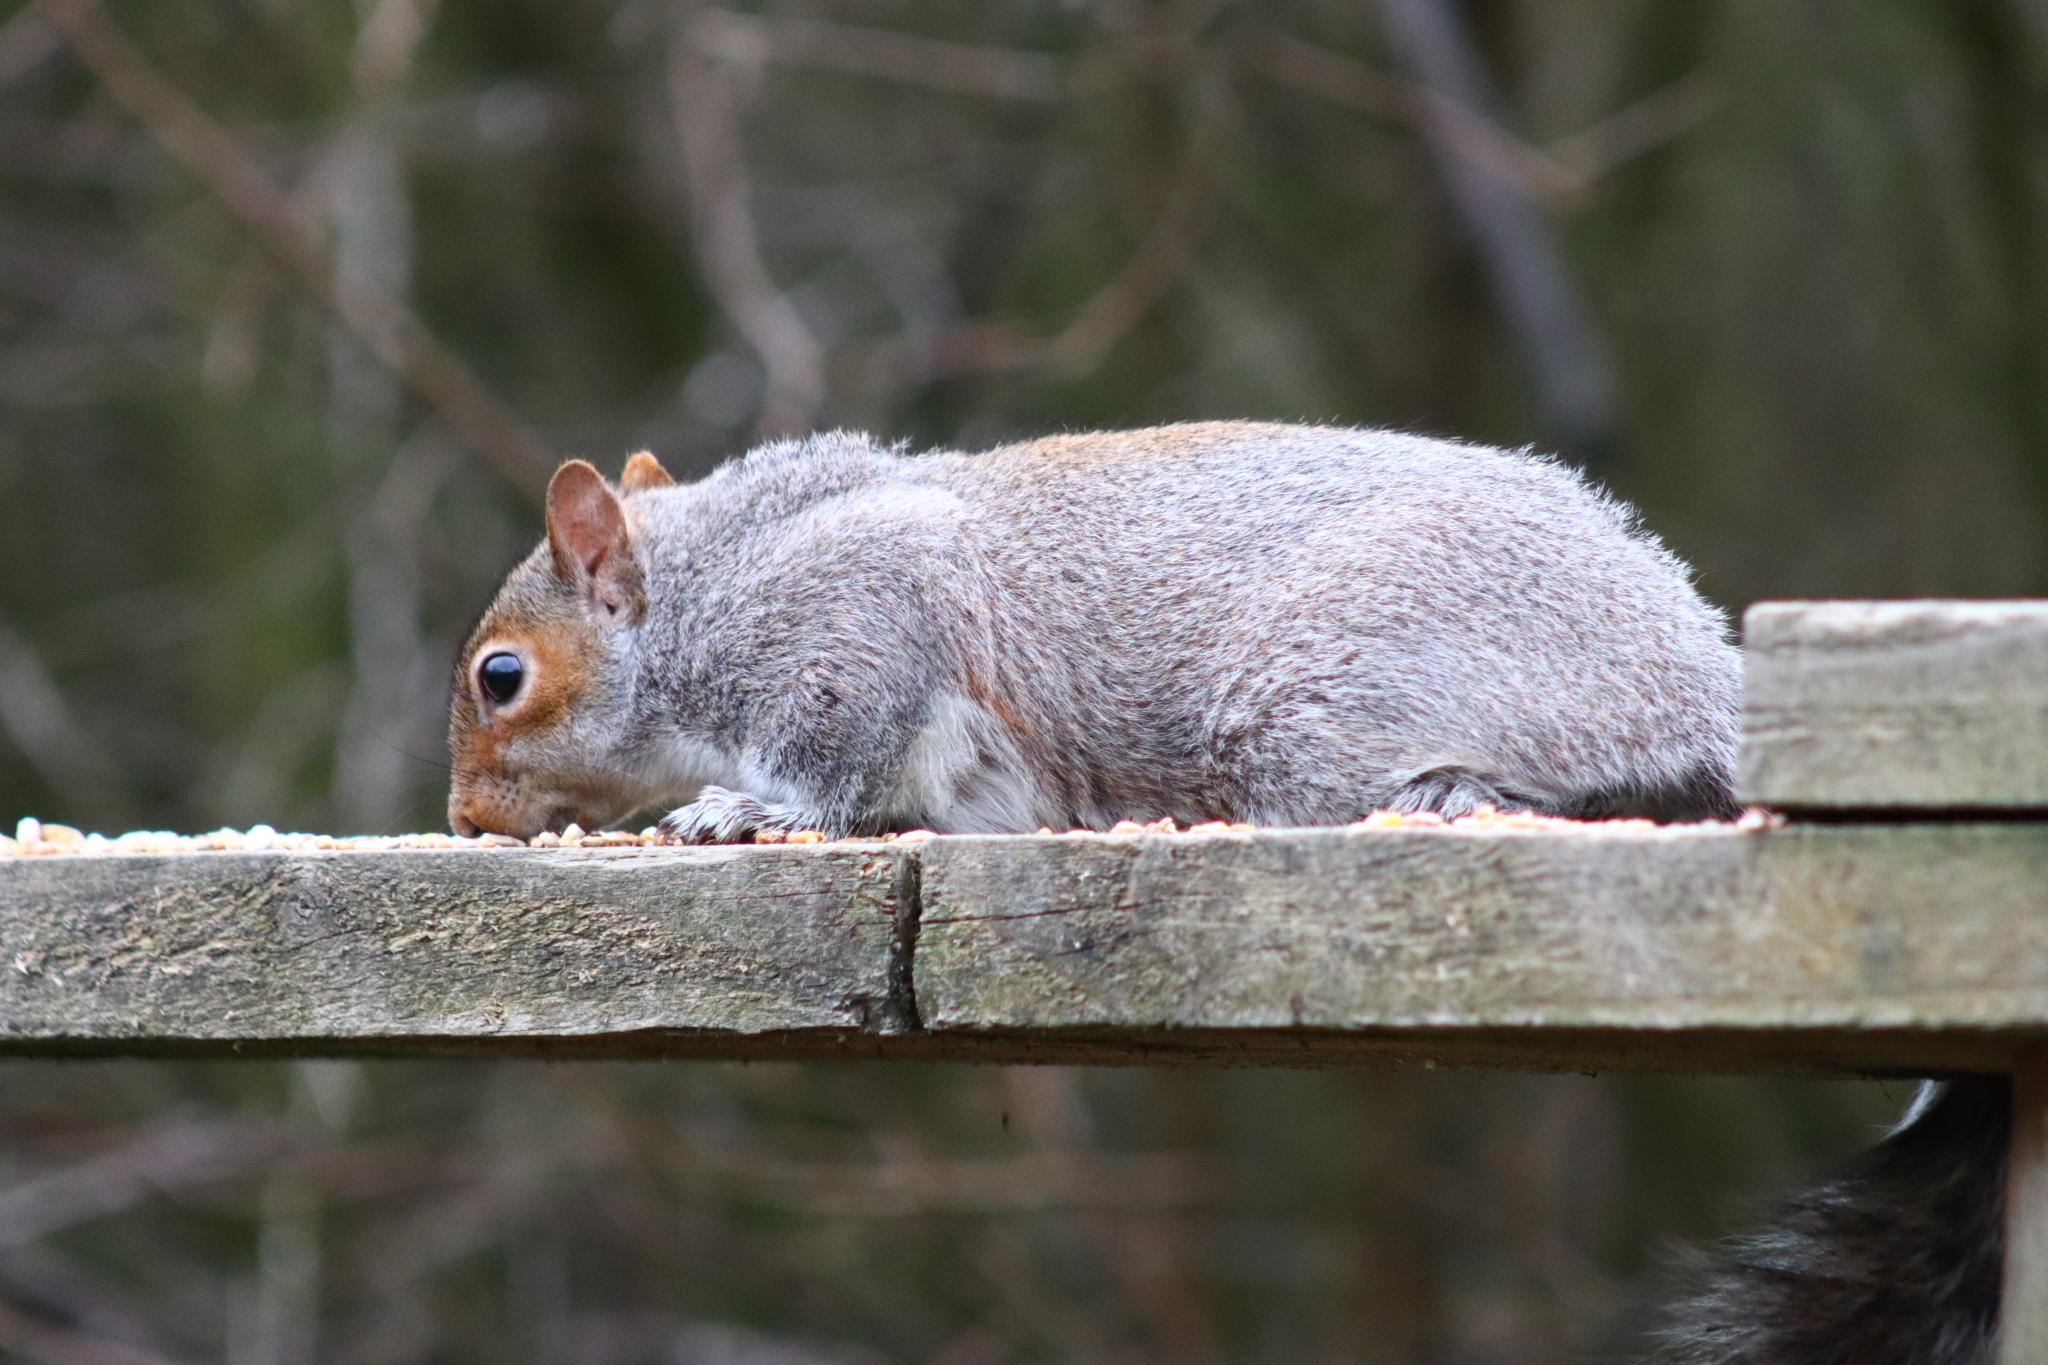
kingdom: Animalia
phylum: Chordata
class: Mammalia
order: Rodentia
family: Sciuridae
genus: Sciurus
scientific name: Sciurus carolinensis
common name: Eastern gray squirrel
